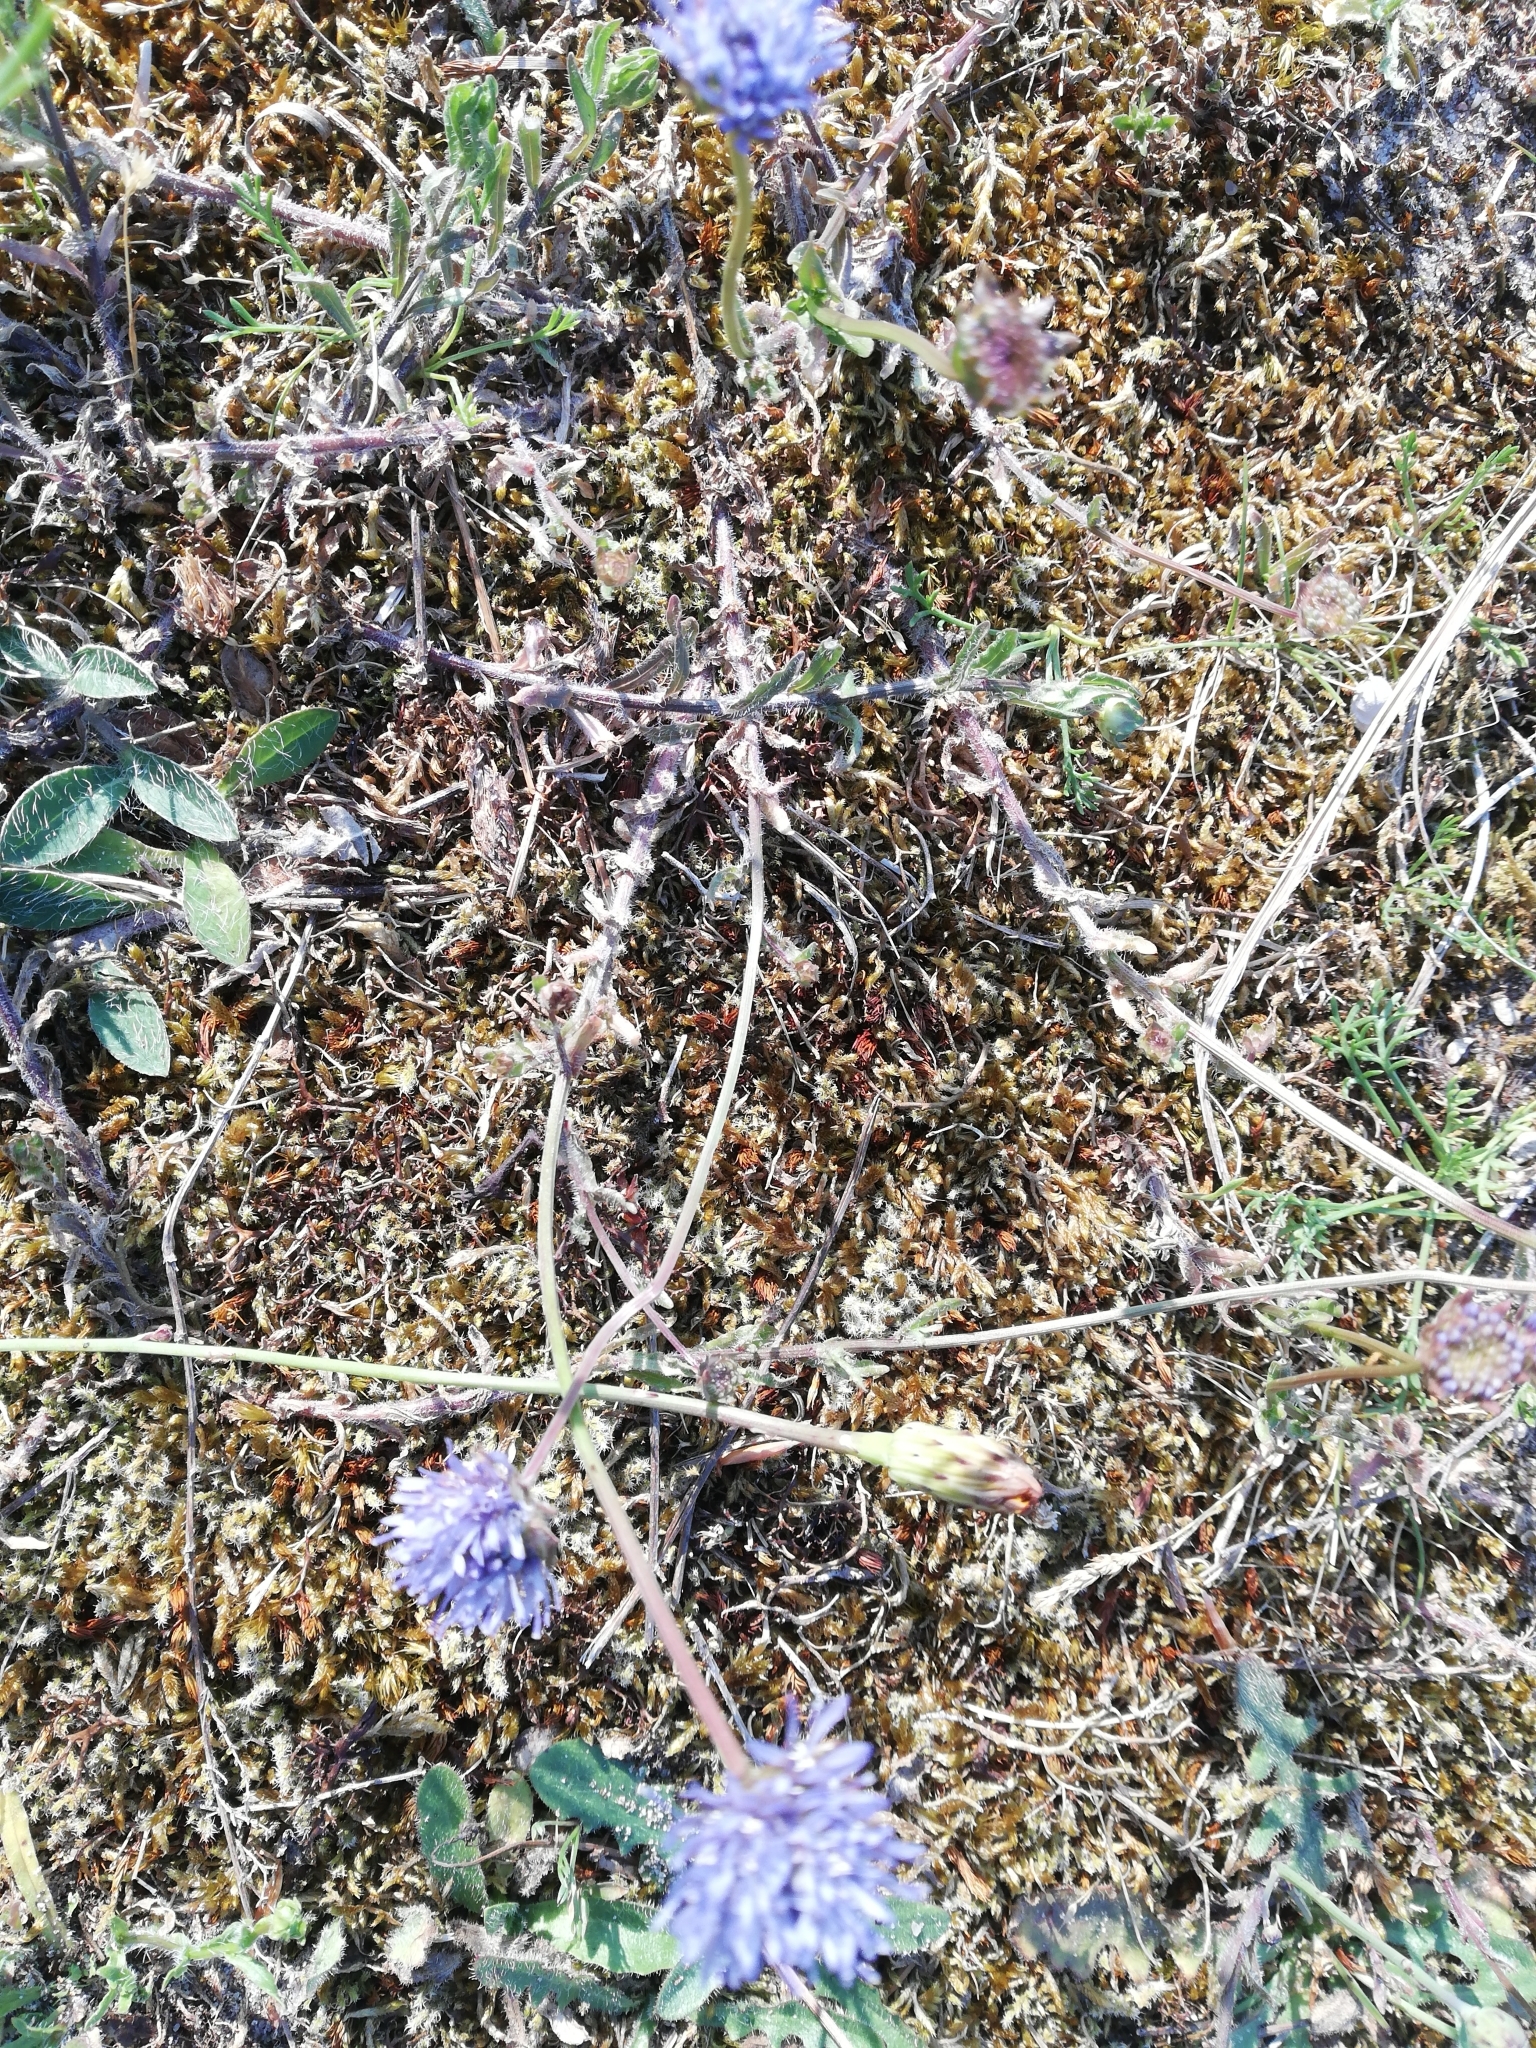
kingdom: Plantae
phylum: Tracheophyta
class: Magnoliopsida
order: Asterales
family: Campanulaceae
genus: Jasione
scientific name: Jasione montana
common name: Sheep's-bit
